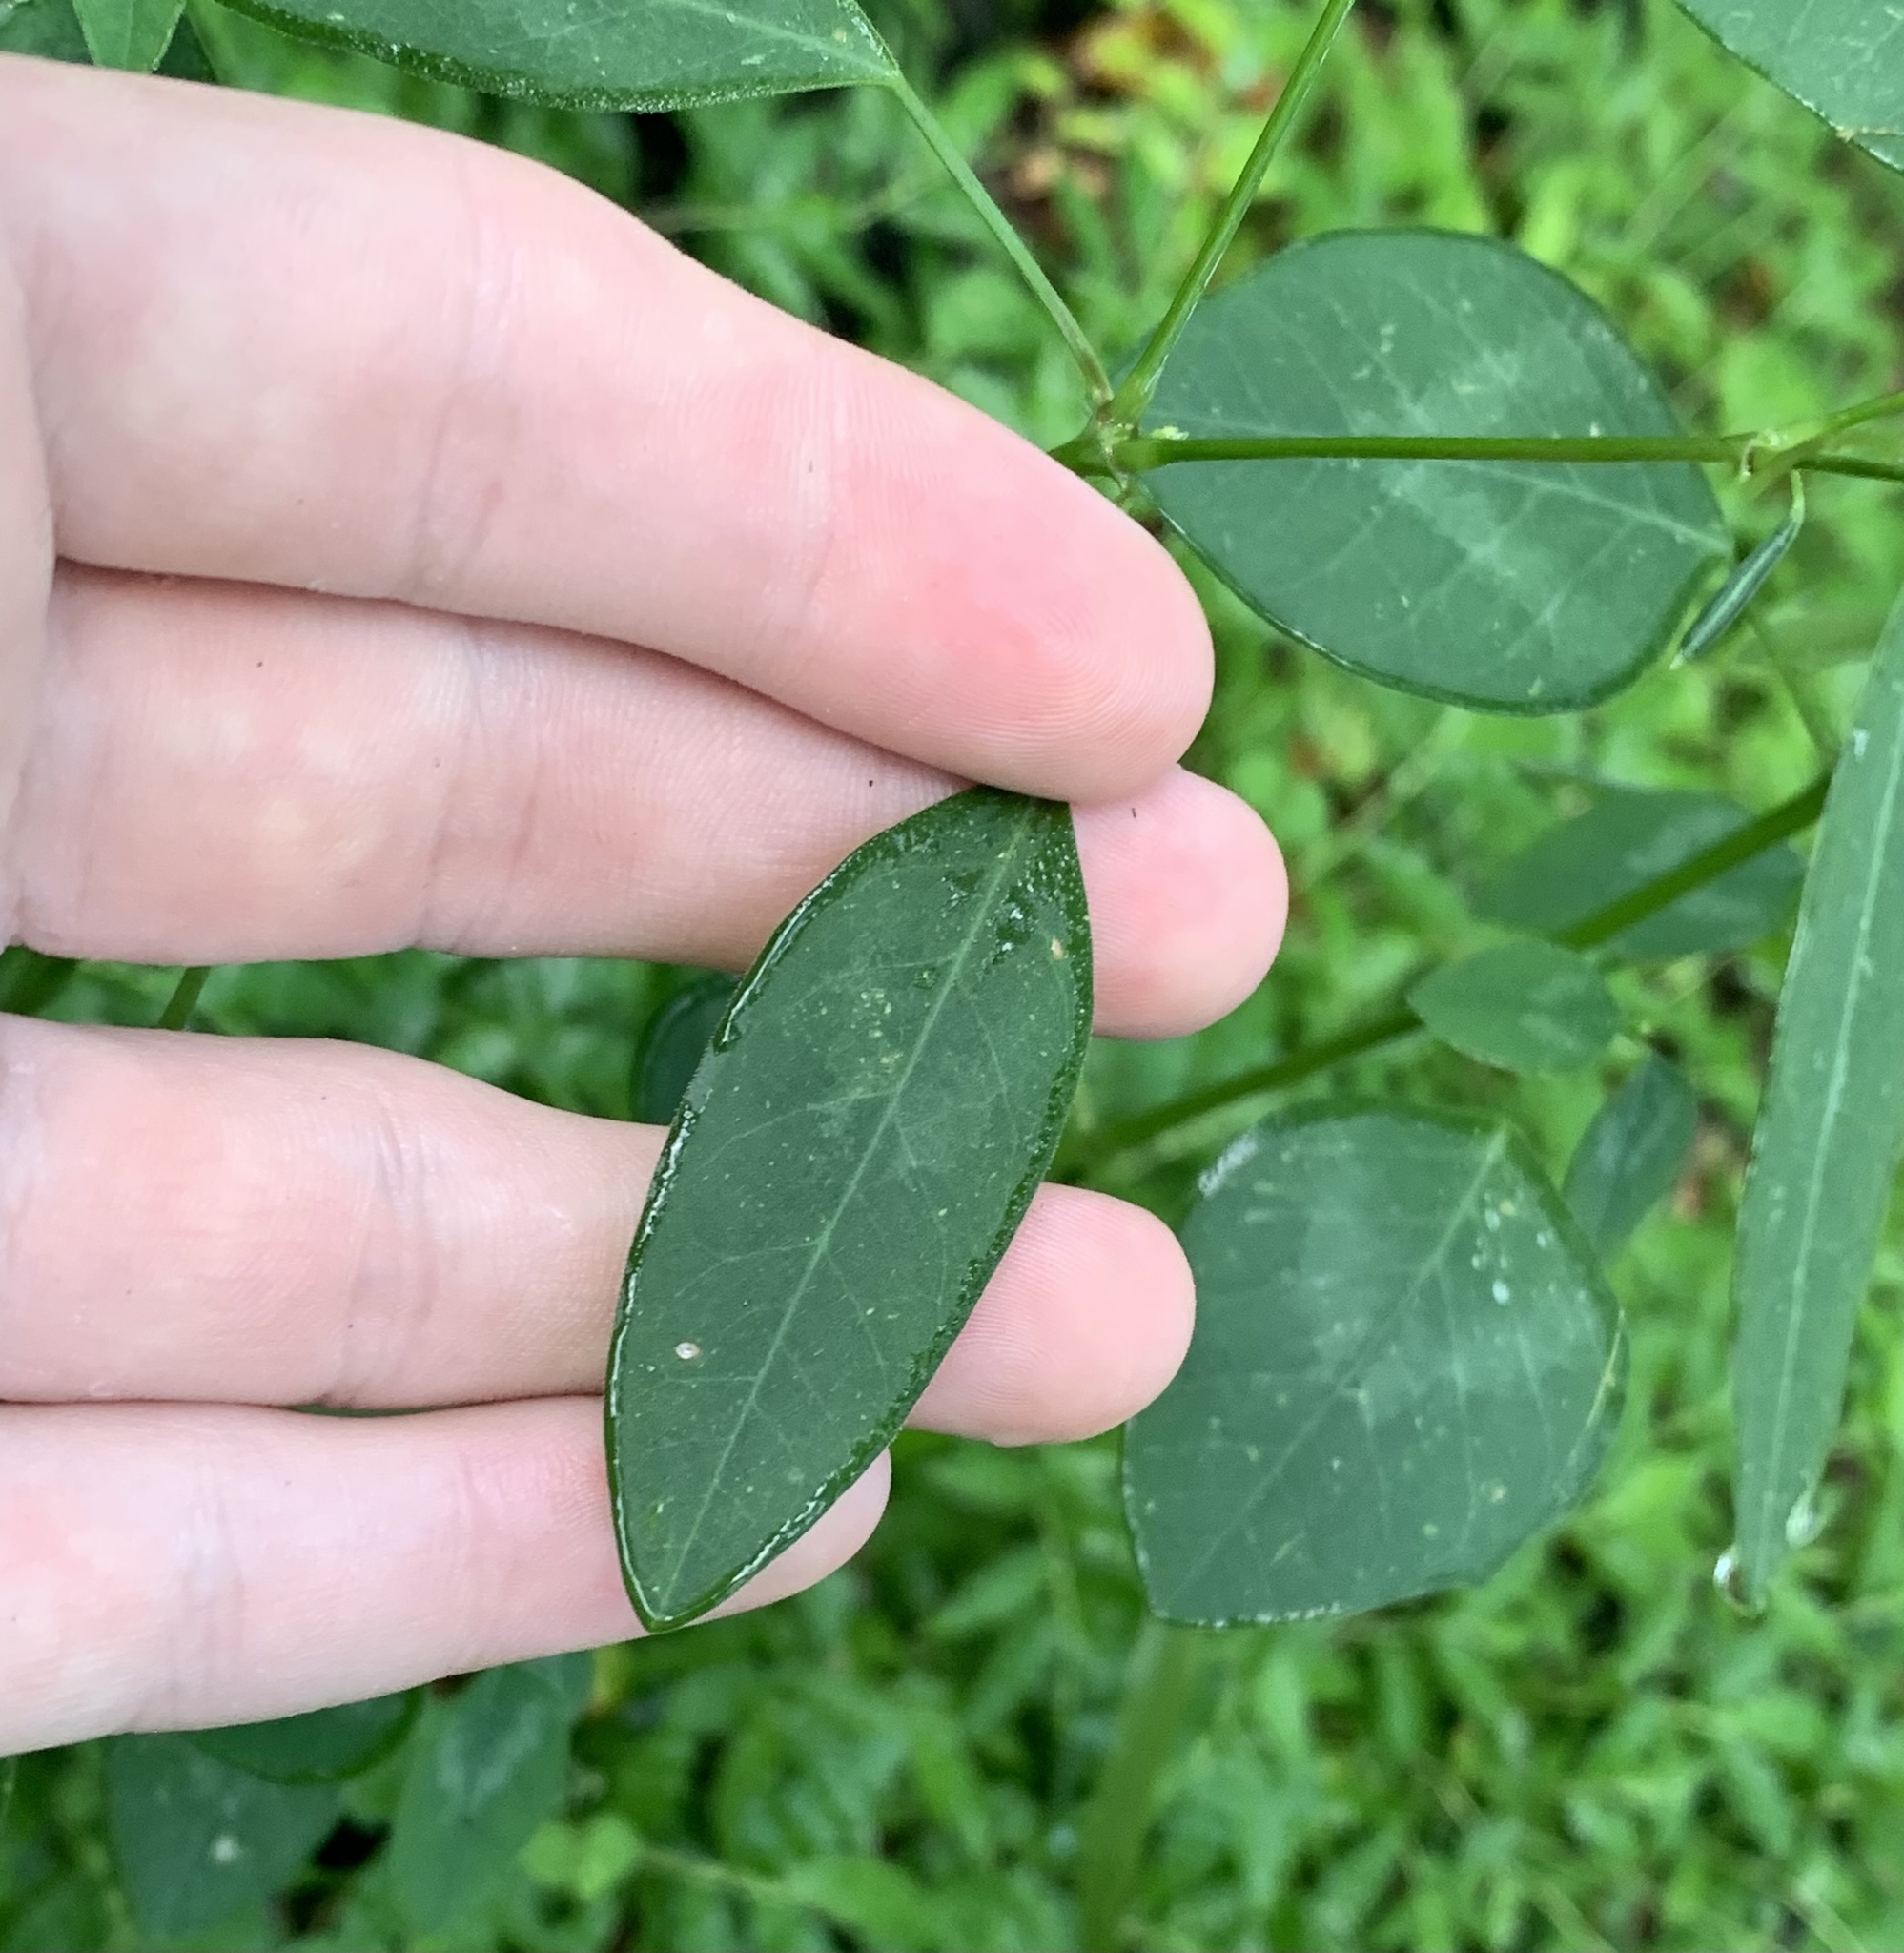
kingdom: Plantae
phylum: Tracheophyta
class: Magnoliopsida
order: Malpighiales
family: Euphorbiaceae
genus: Euphorbia
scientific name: Euphorbia graminea
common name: Grassleaf spurge
